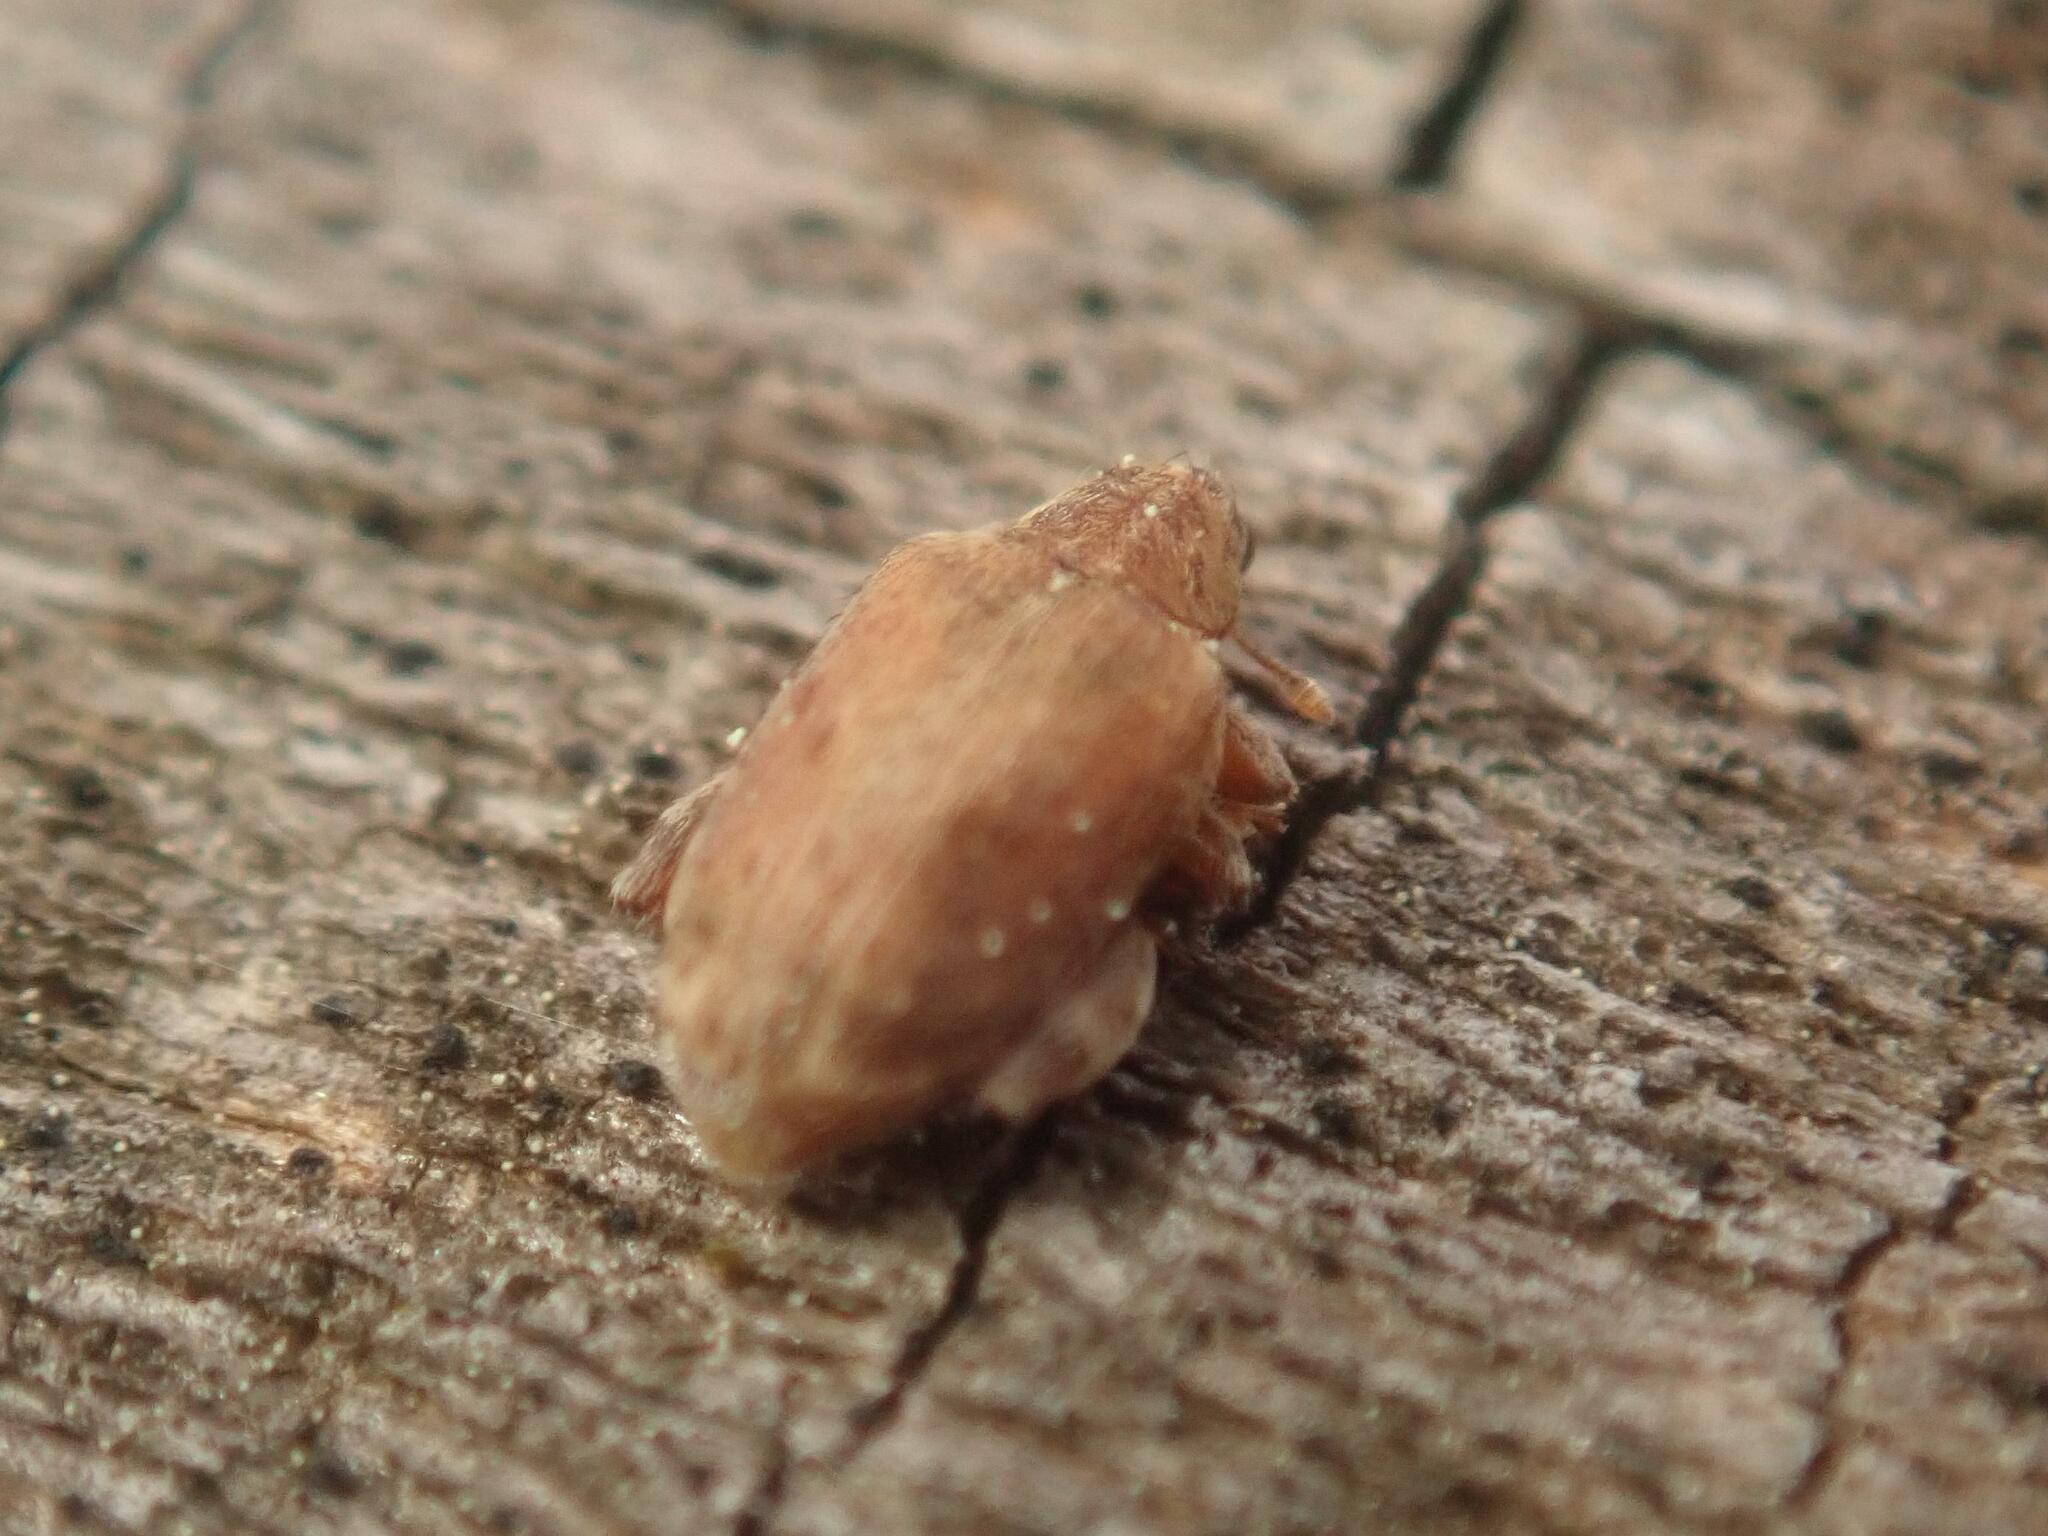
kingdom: Animalia
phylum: Arthropoda
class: Insecta
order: Coleoptera
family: Curculionidae
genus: Orchestes
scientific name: Orchestes quercus
